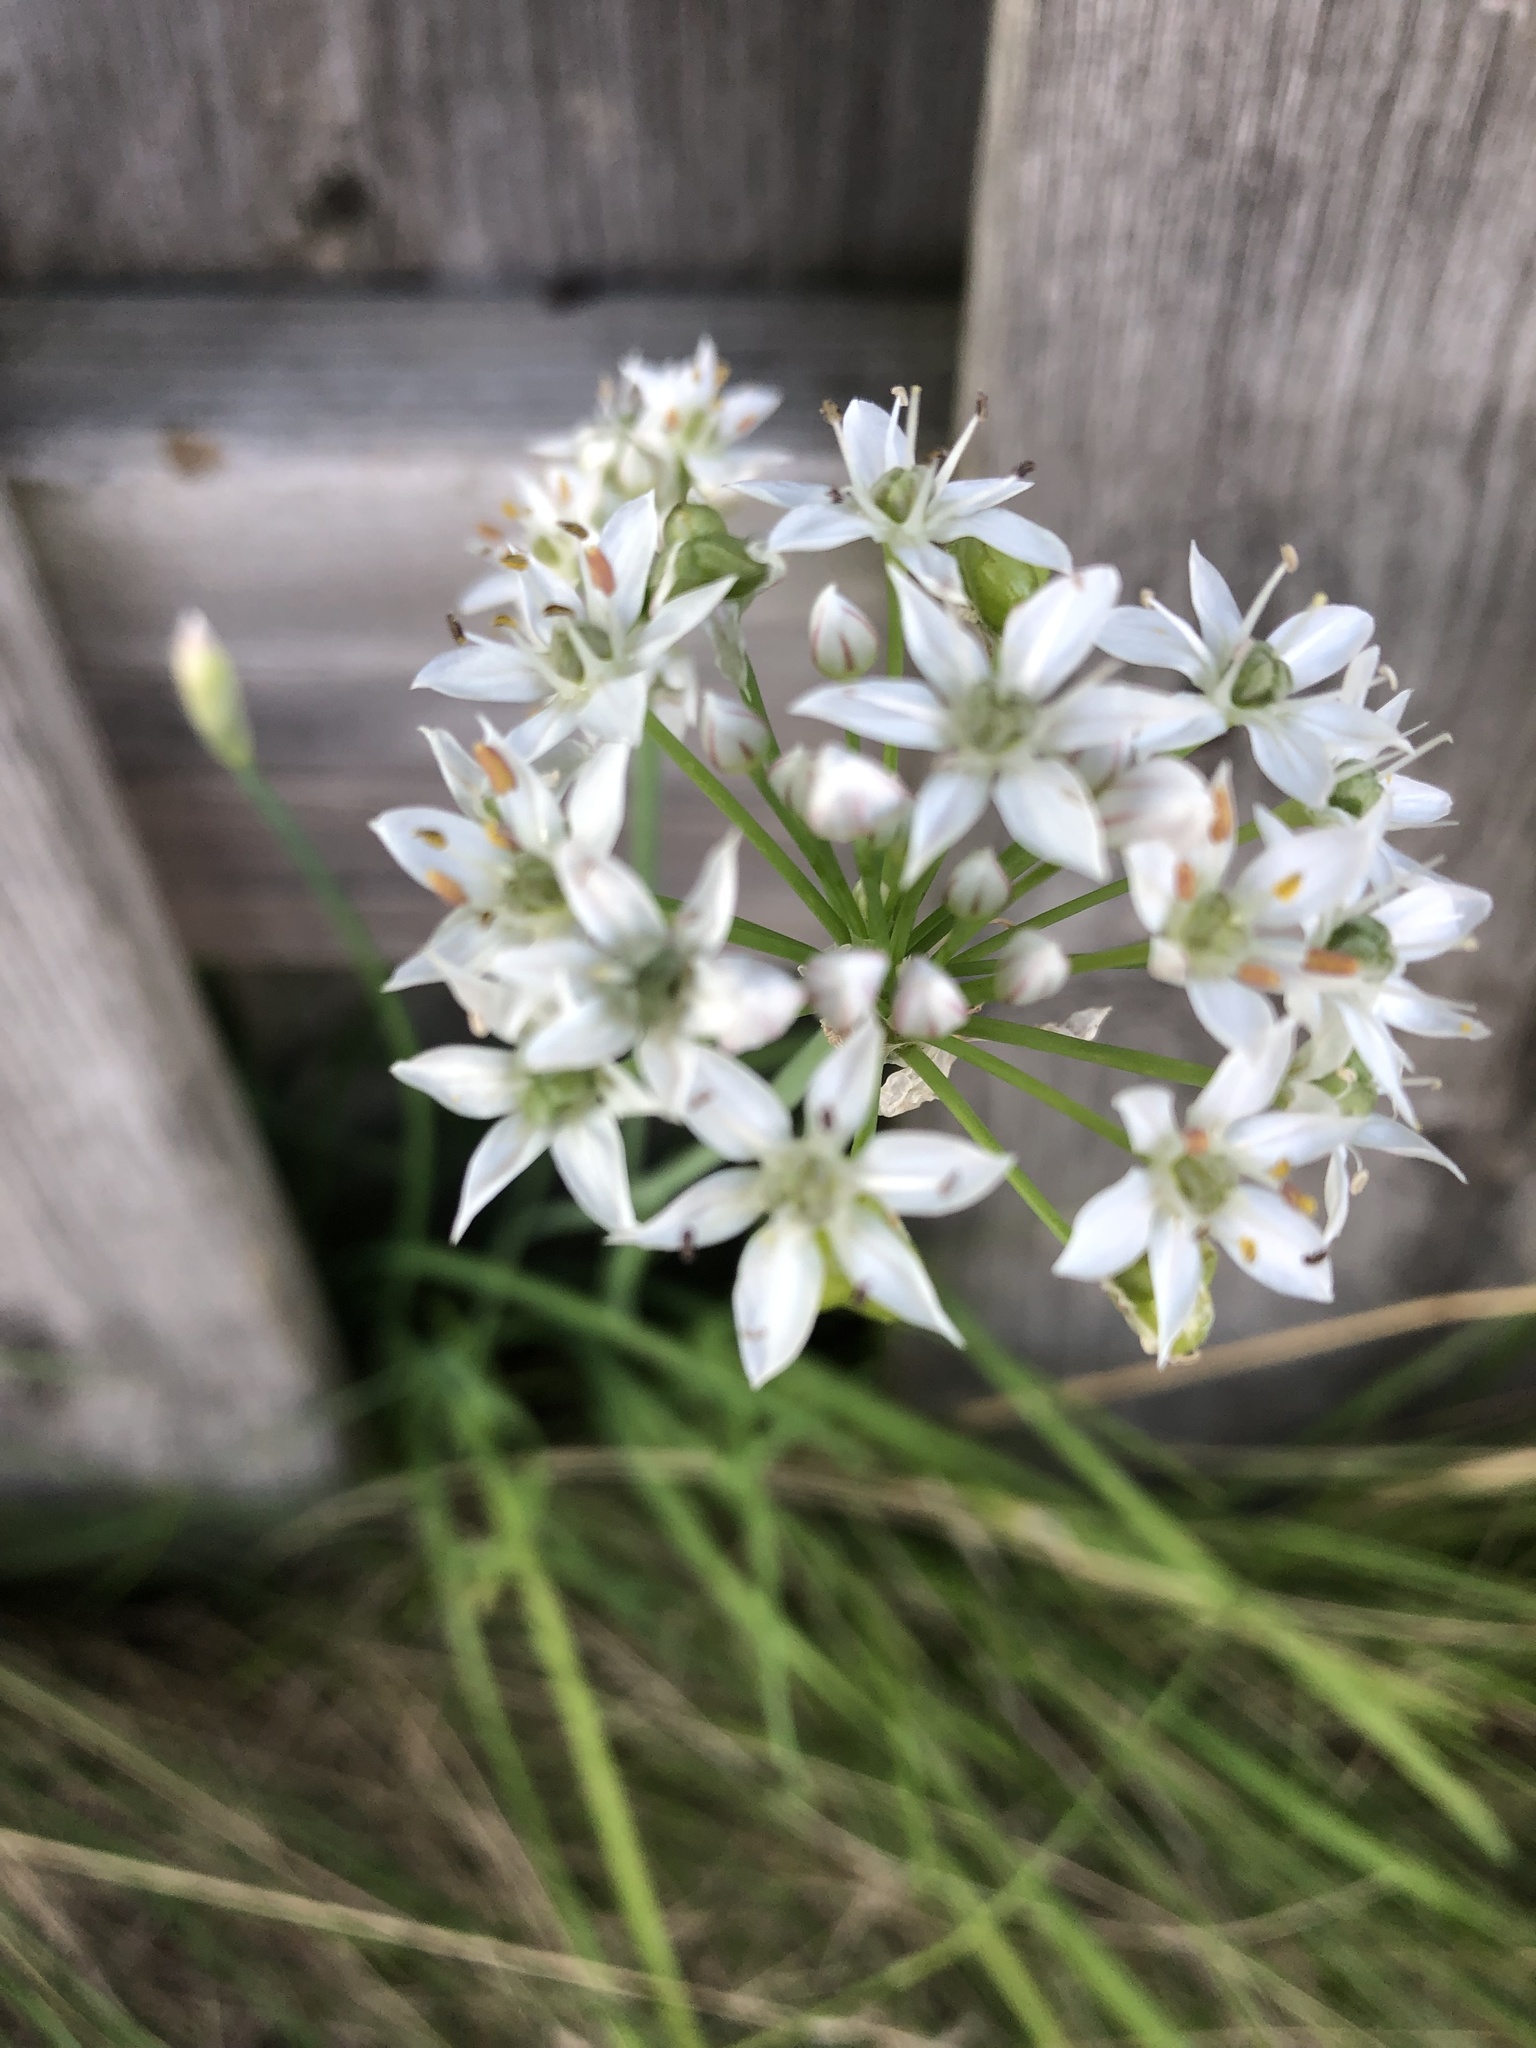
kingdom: Plantae
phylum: Tracheophyta
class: Liliopsida
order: Asparagales
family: Amaryllidaceae
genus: Allium
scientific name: Allium tuberosum
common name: Chinese chives
